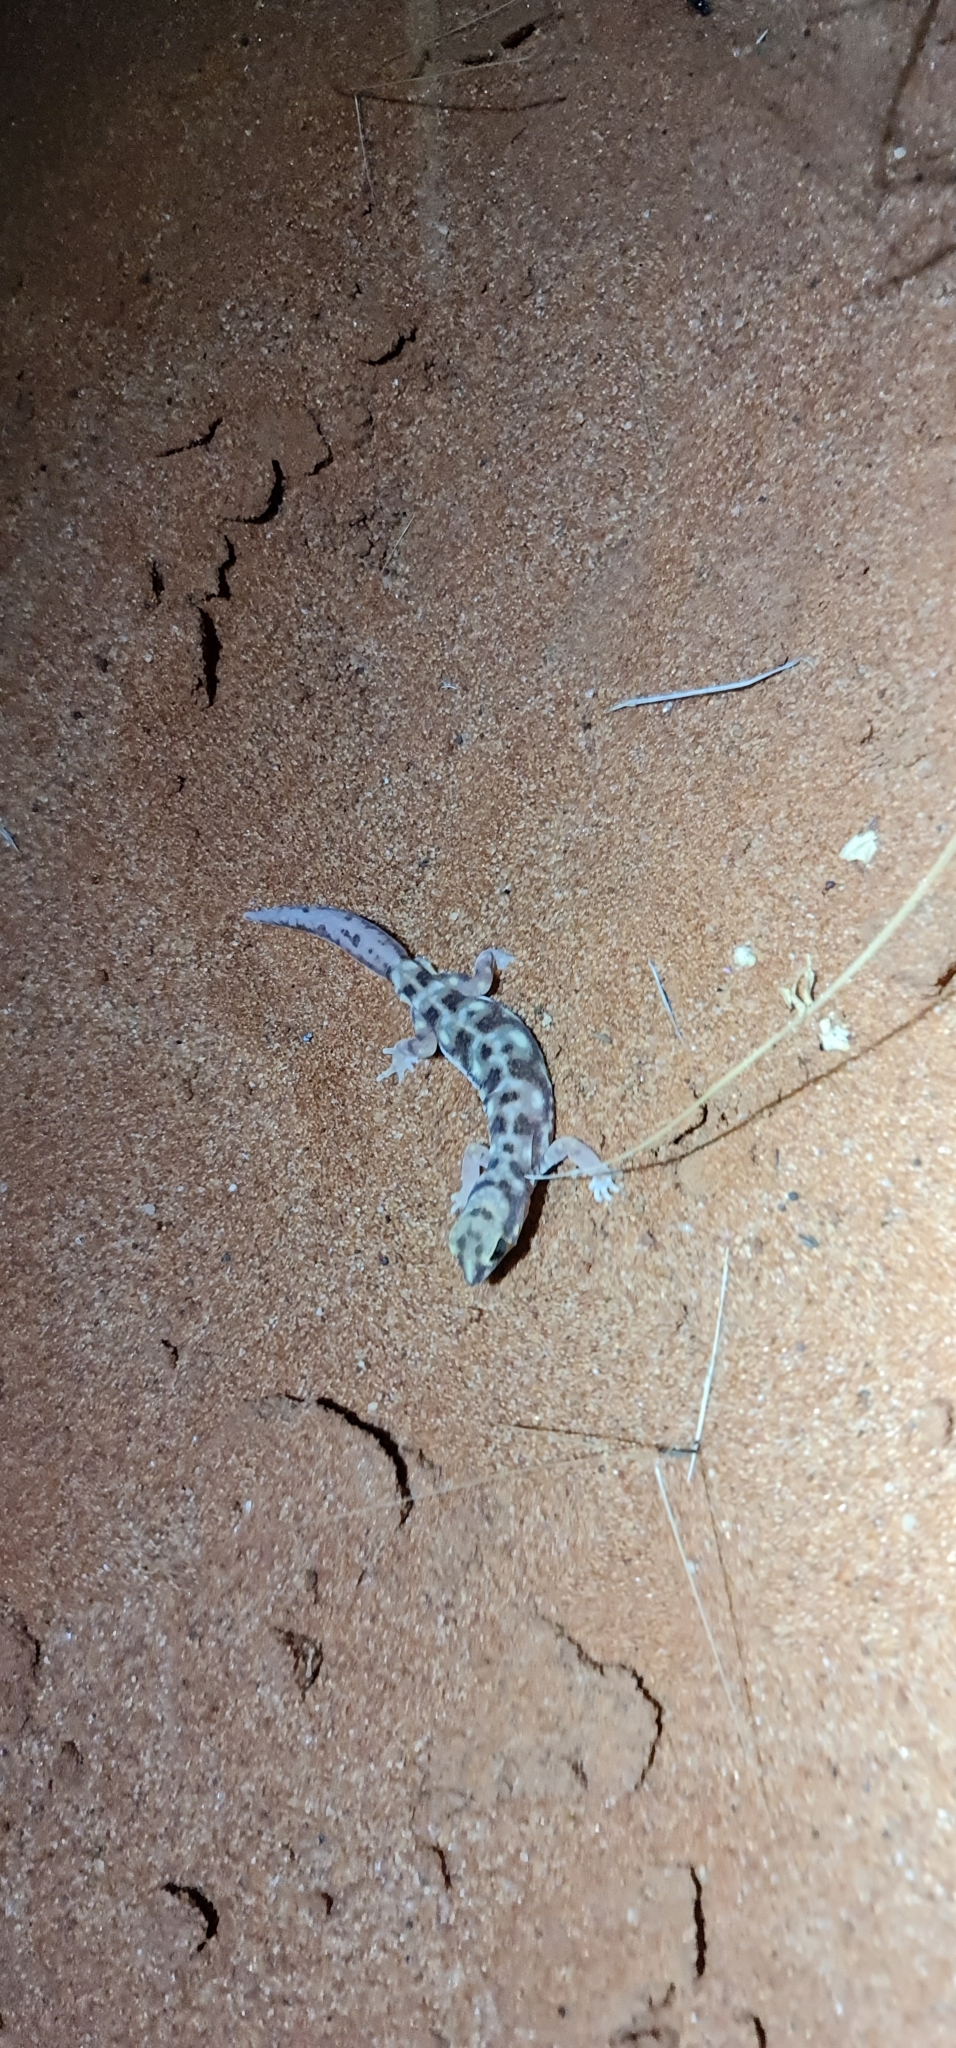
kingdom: Animalia
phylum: Chordata
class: Squamata
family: Diplodactylidae
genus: Rhynchoedura
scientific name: Rhynchoedura eyrensis
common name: Eyre basin beaked gecko
